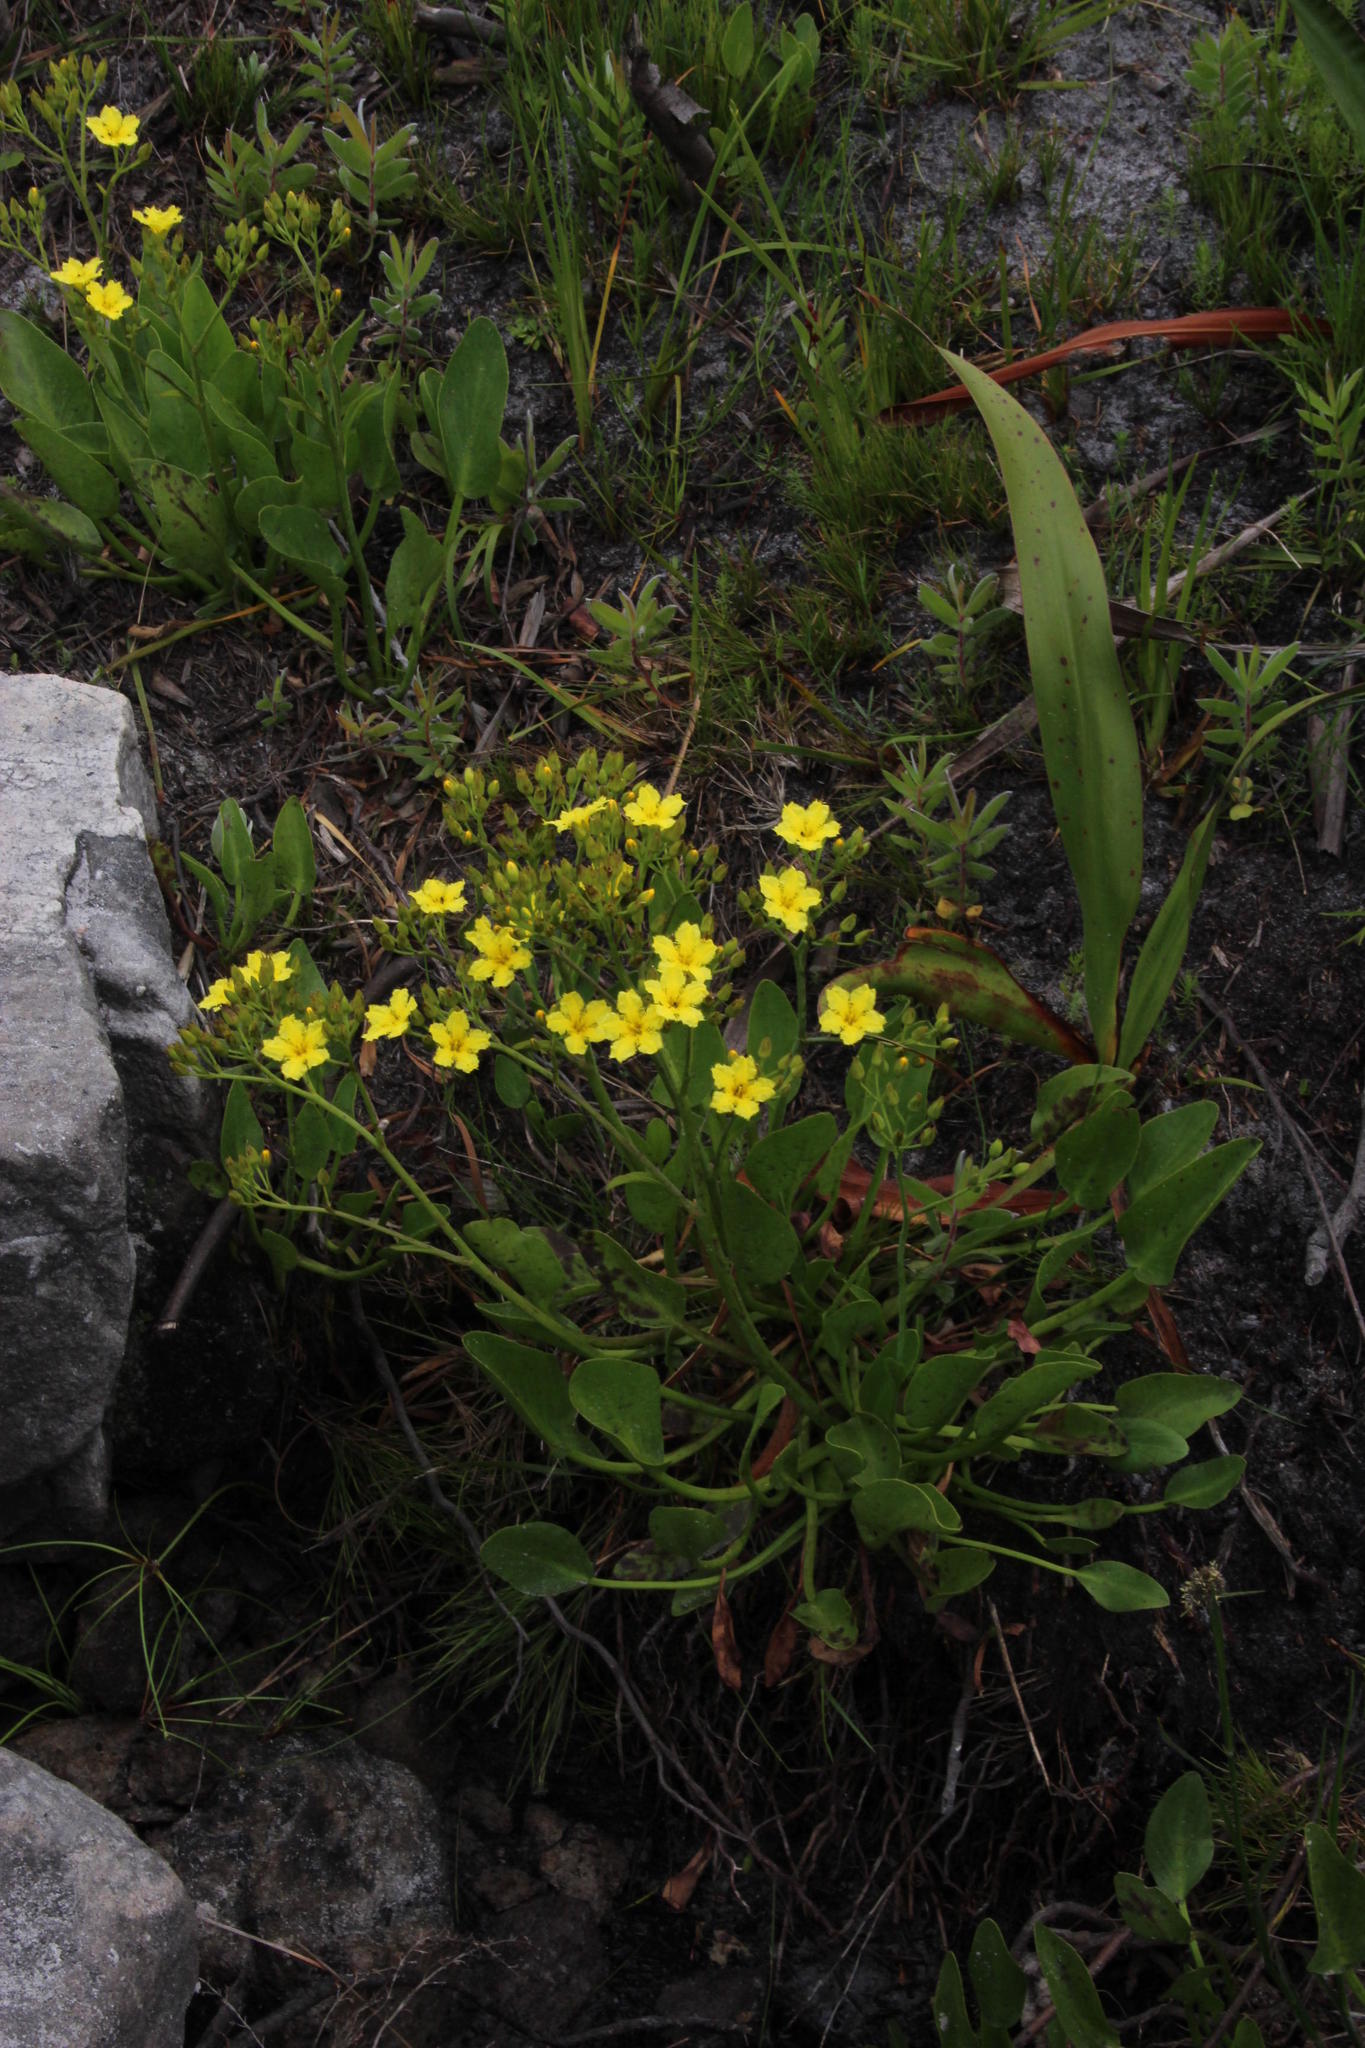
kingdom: Plantae
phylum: Tracheophyta
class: Magnoliopsida
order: Asterales
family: Menyanthaceae
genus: Villarsia
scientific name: Villarsia goldblattiana
